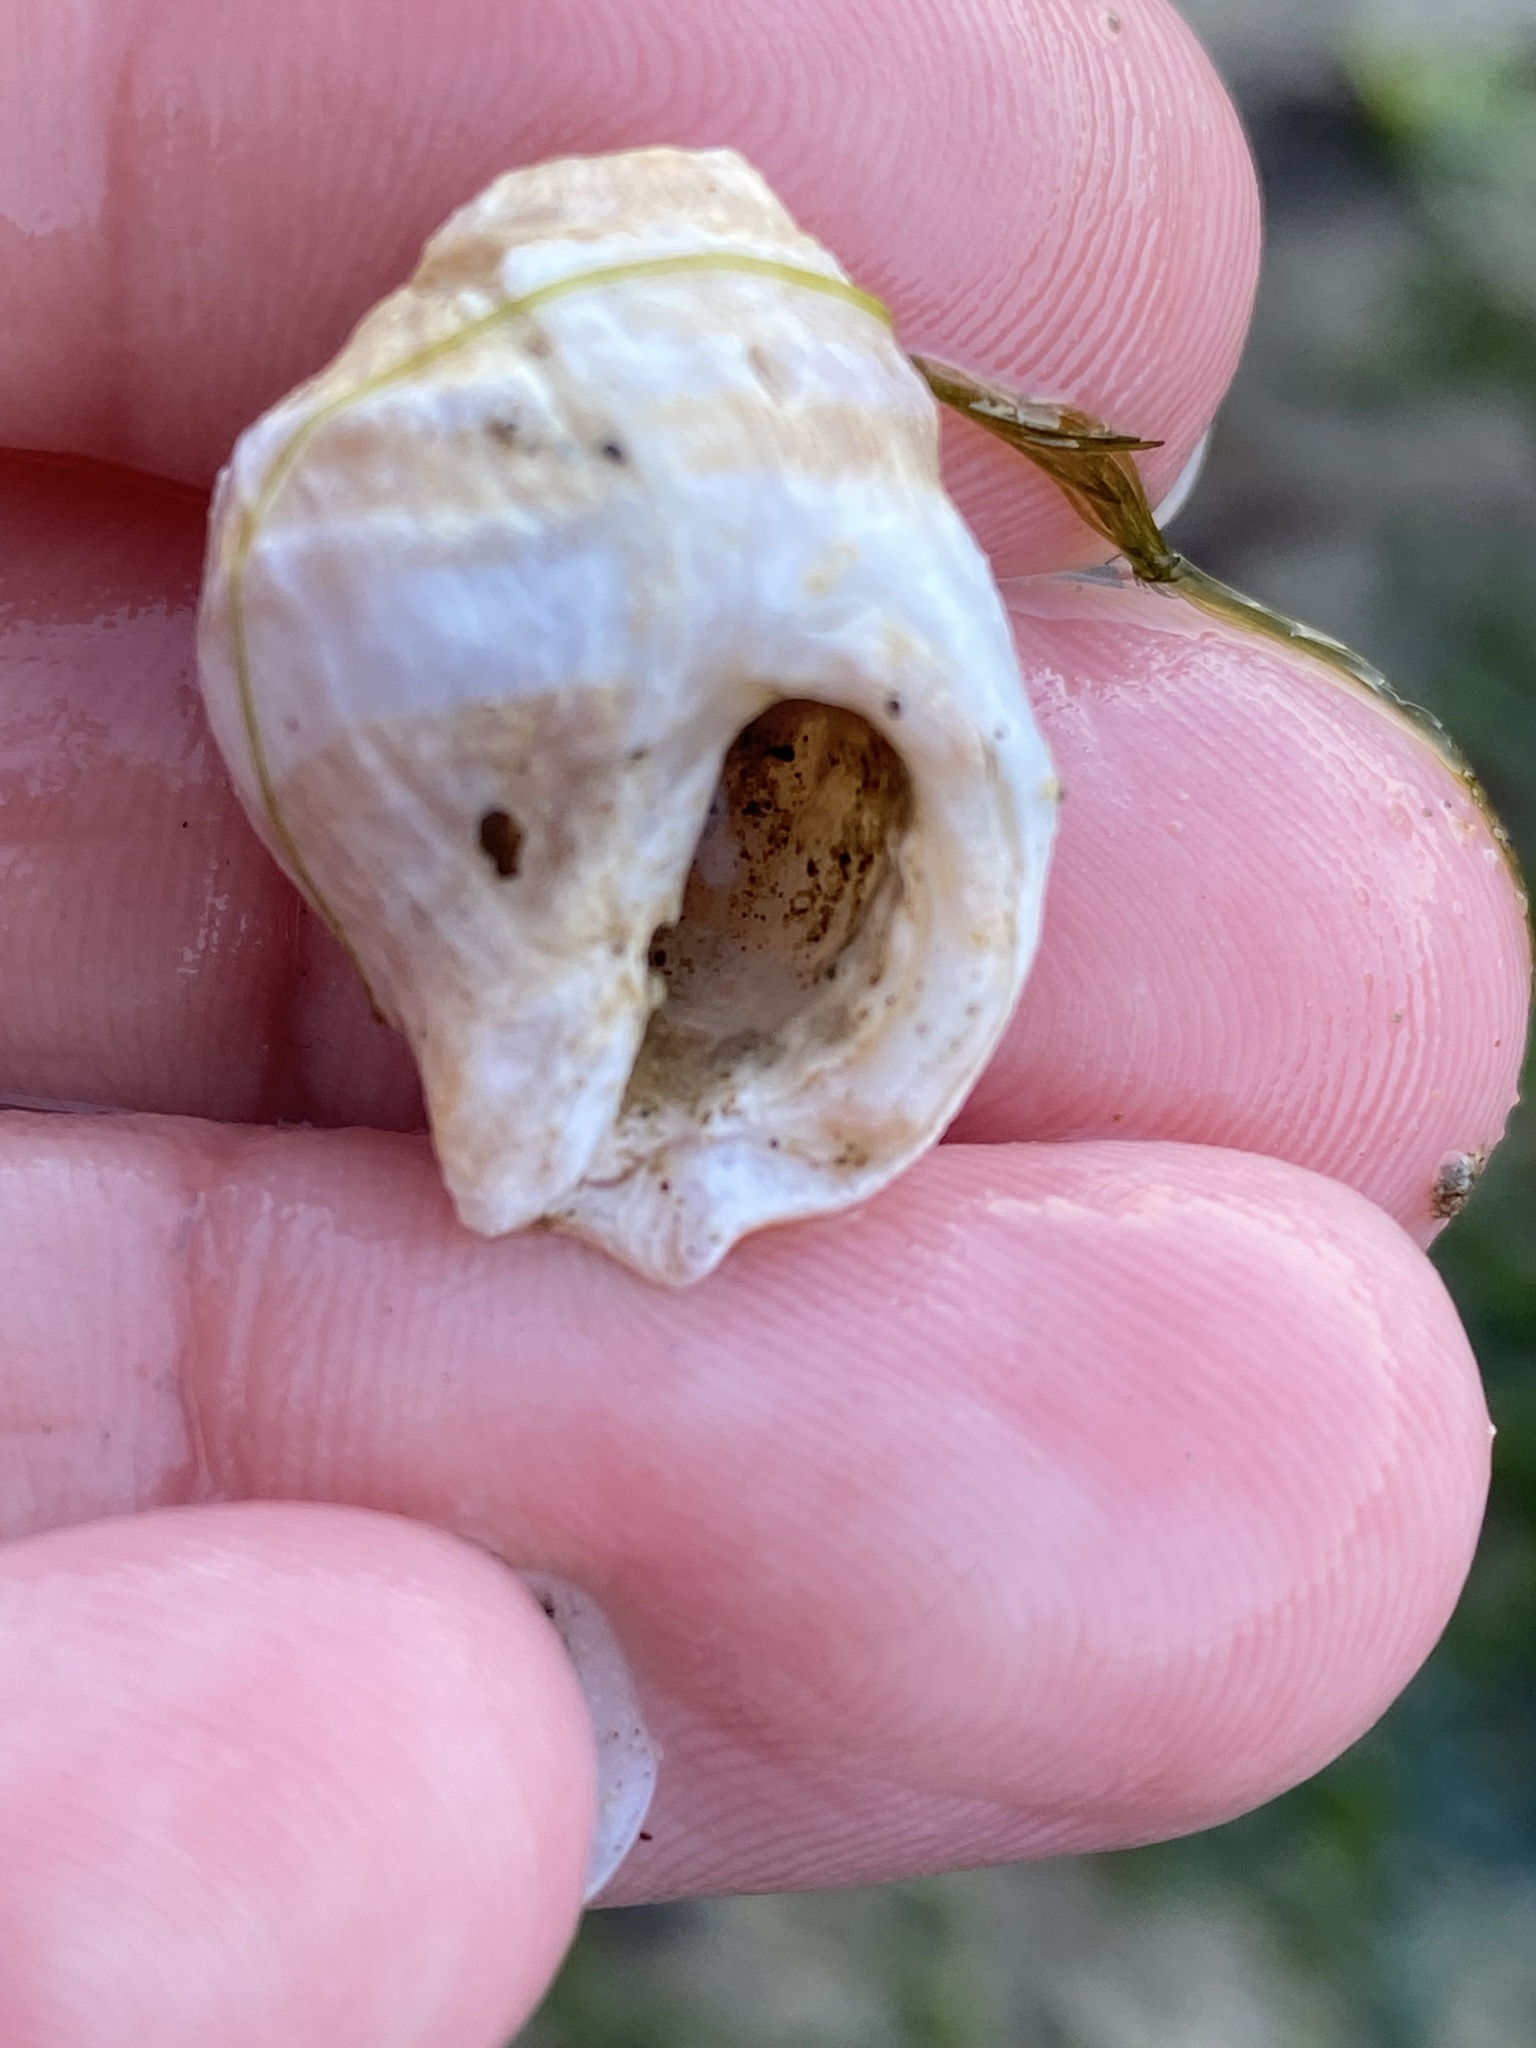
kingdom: Animalia
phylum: Mollusca
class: Gastropoda
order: Neogastropoda
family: Muricidae
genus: Nucella
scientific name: Nucella lamellosa
